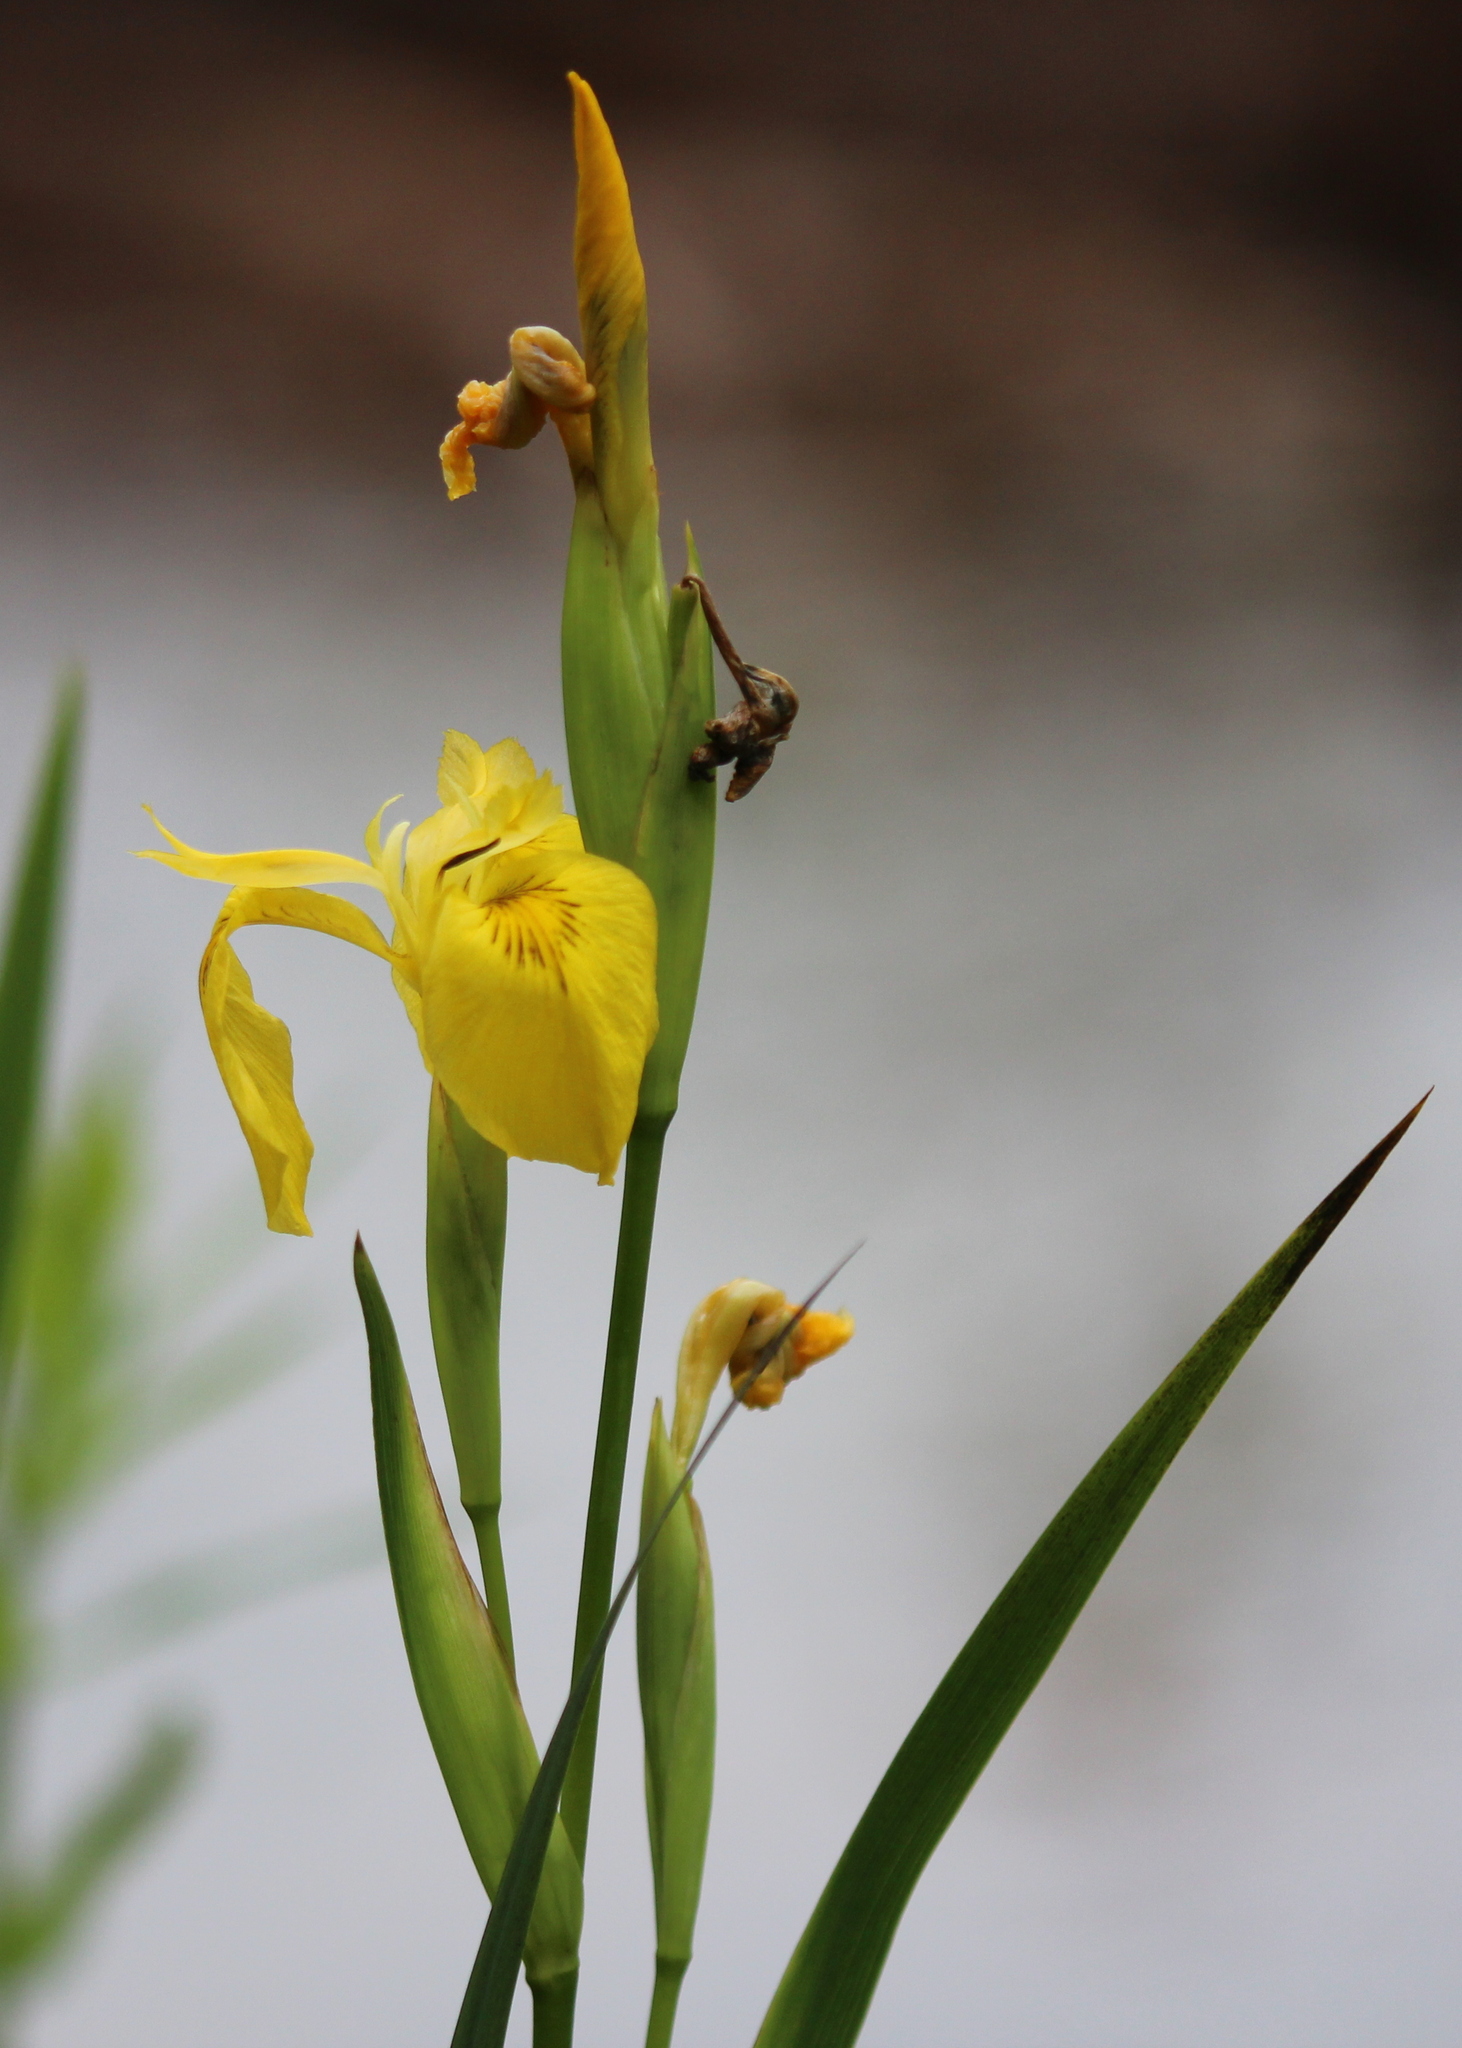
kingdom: Plantae
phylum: Tracheophyta
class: Liliopsida
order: Asparagales
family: Iridaceae
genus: Iris
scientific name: Iris pseudacorus
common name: Yellow flag
